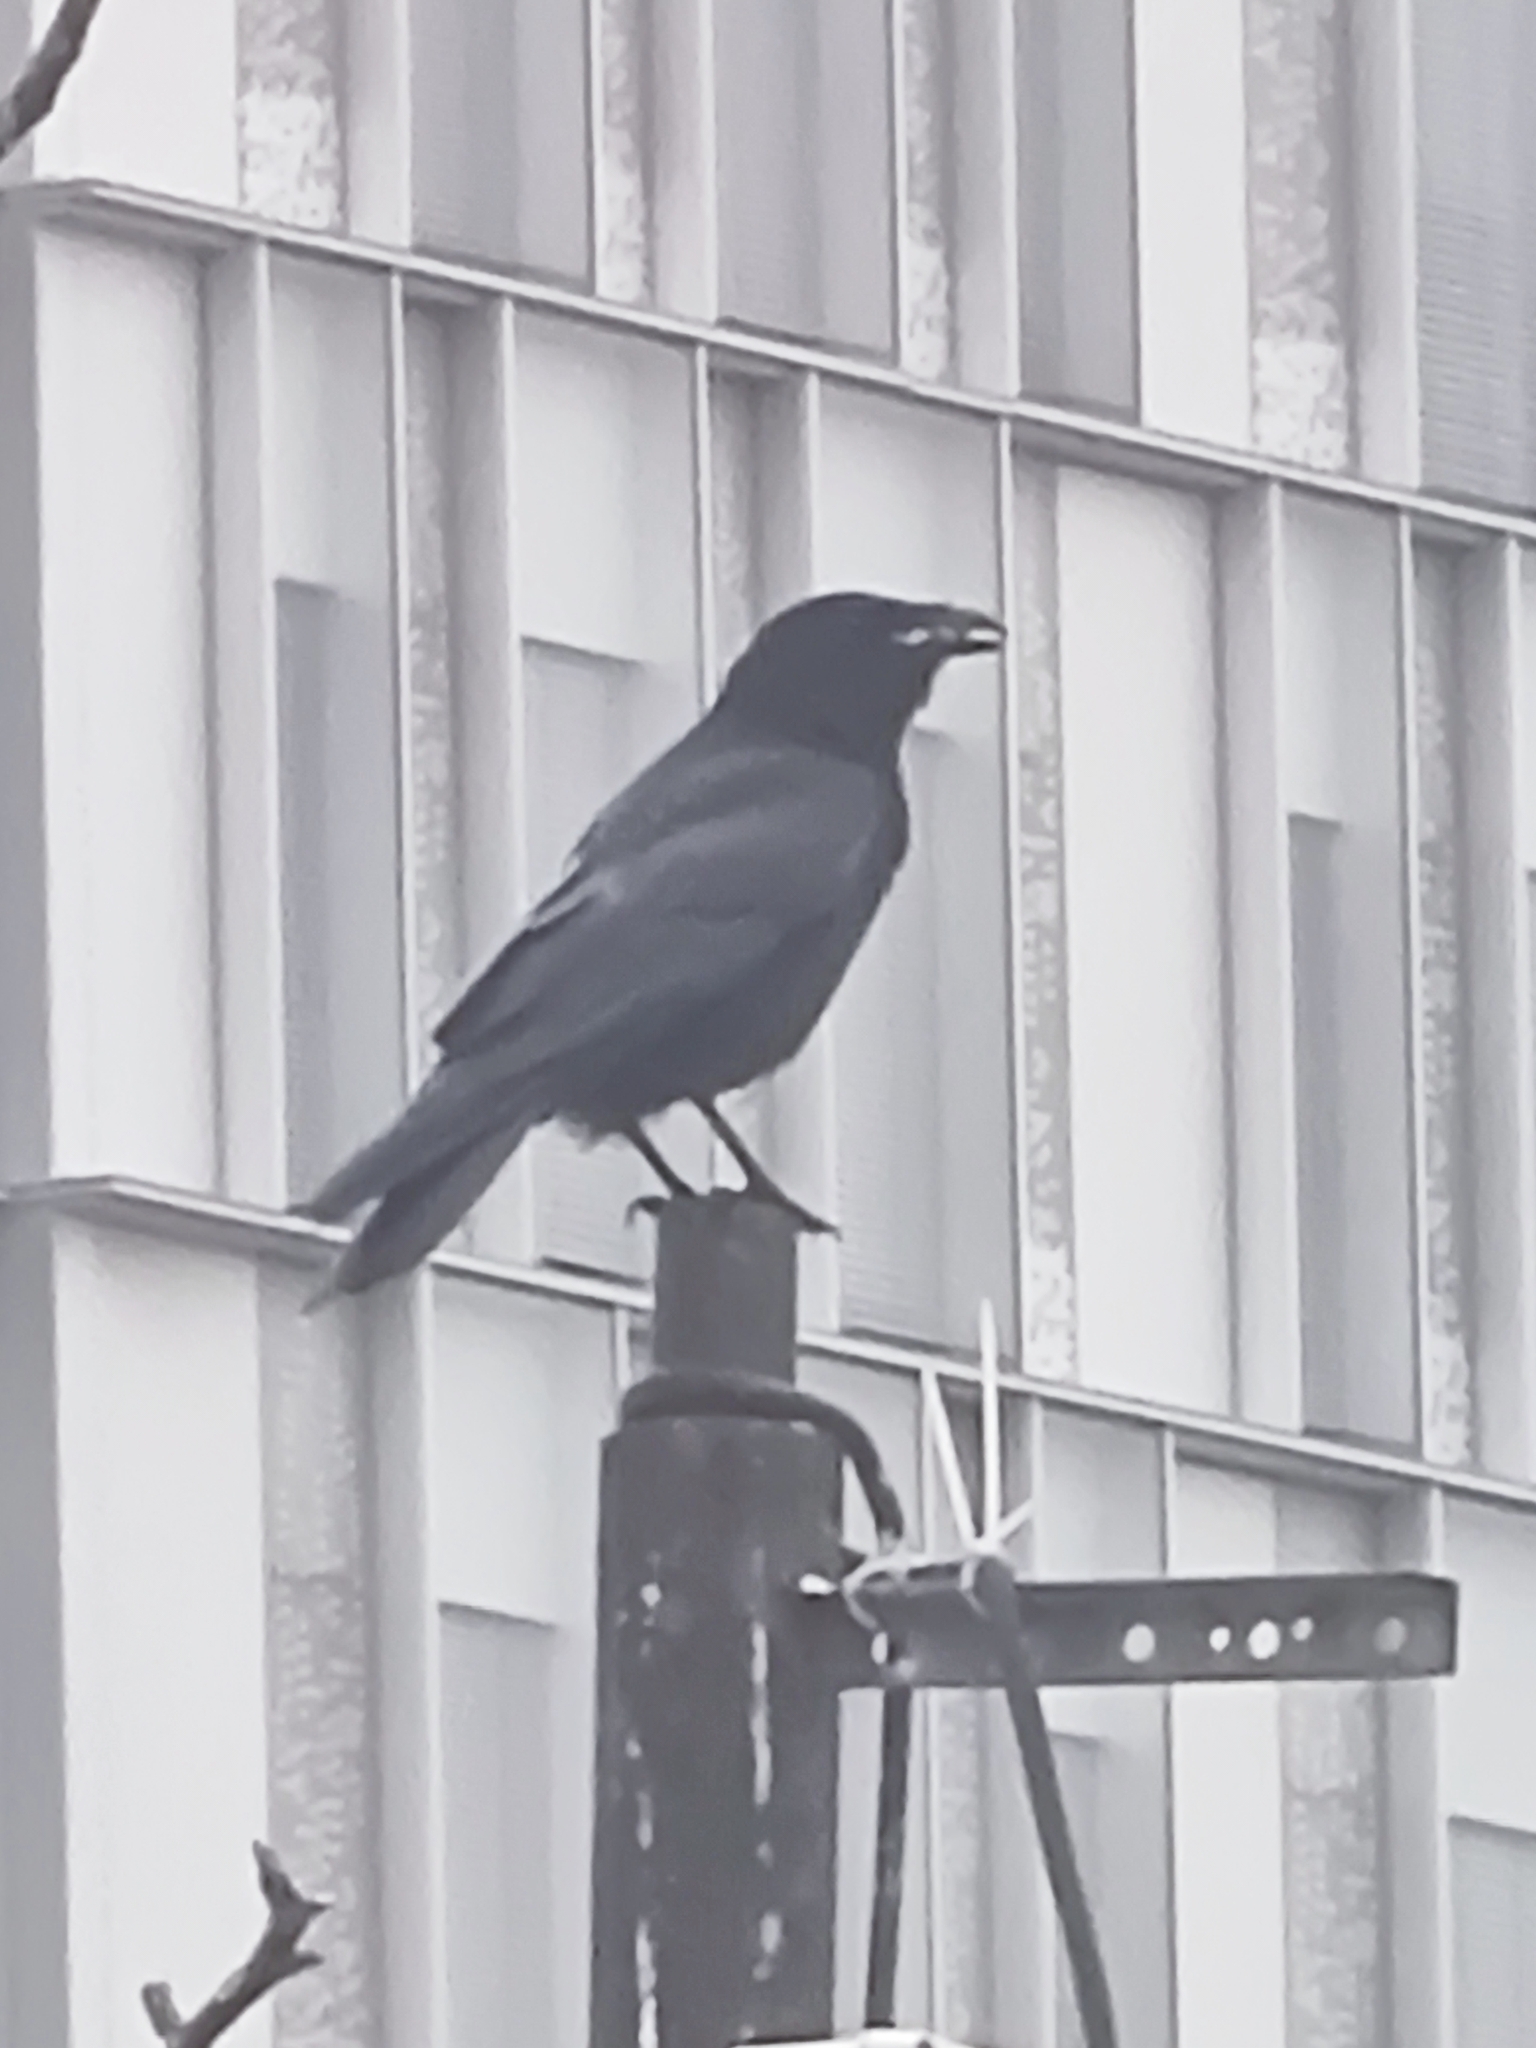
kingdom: Animalia
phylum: Chordata
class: Aves
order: Passeriformes
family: Corvidae
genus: Corvus
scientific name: Corvus corone
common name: Carrion crow
